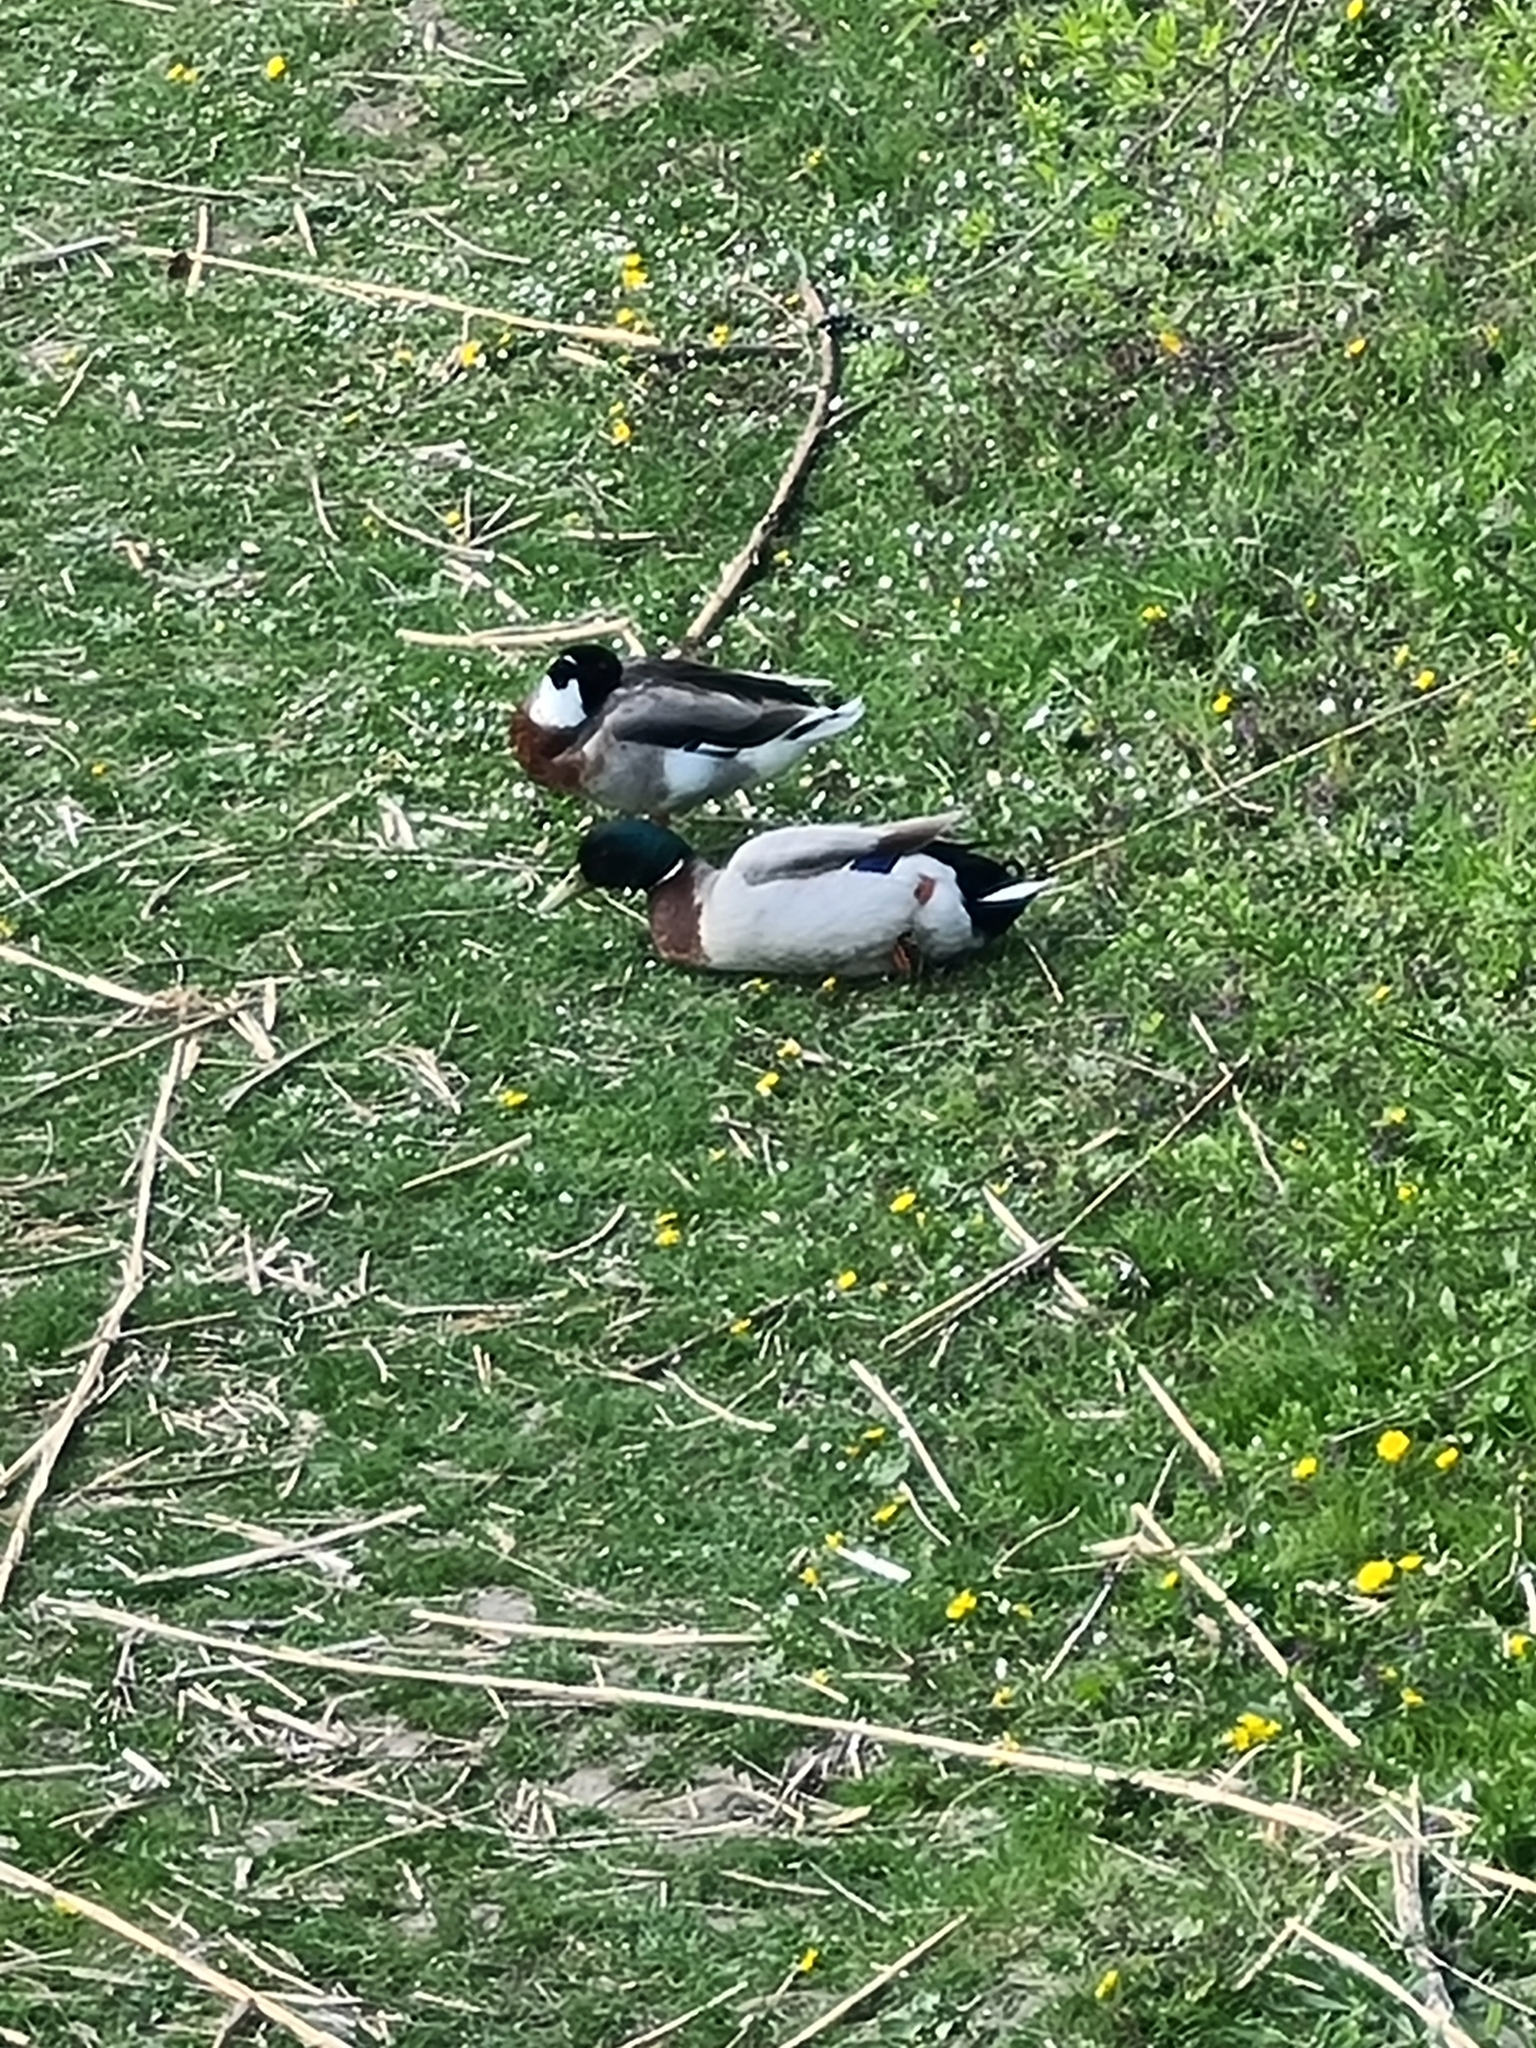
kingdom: Animalia
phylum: Chordata
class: Aves
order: Anseriformes
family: Anatidae
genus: Anas
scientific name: Anas platyrhynchos
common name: Mallard
